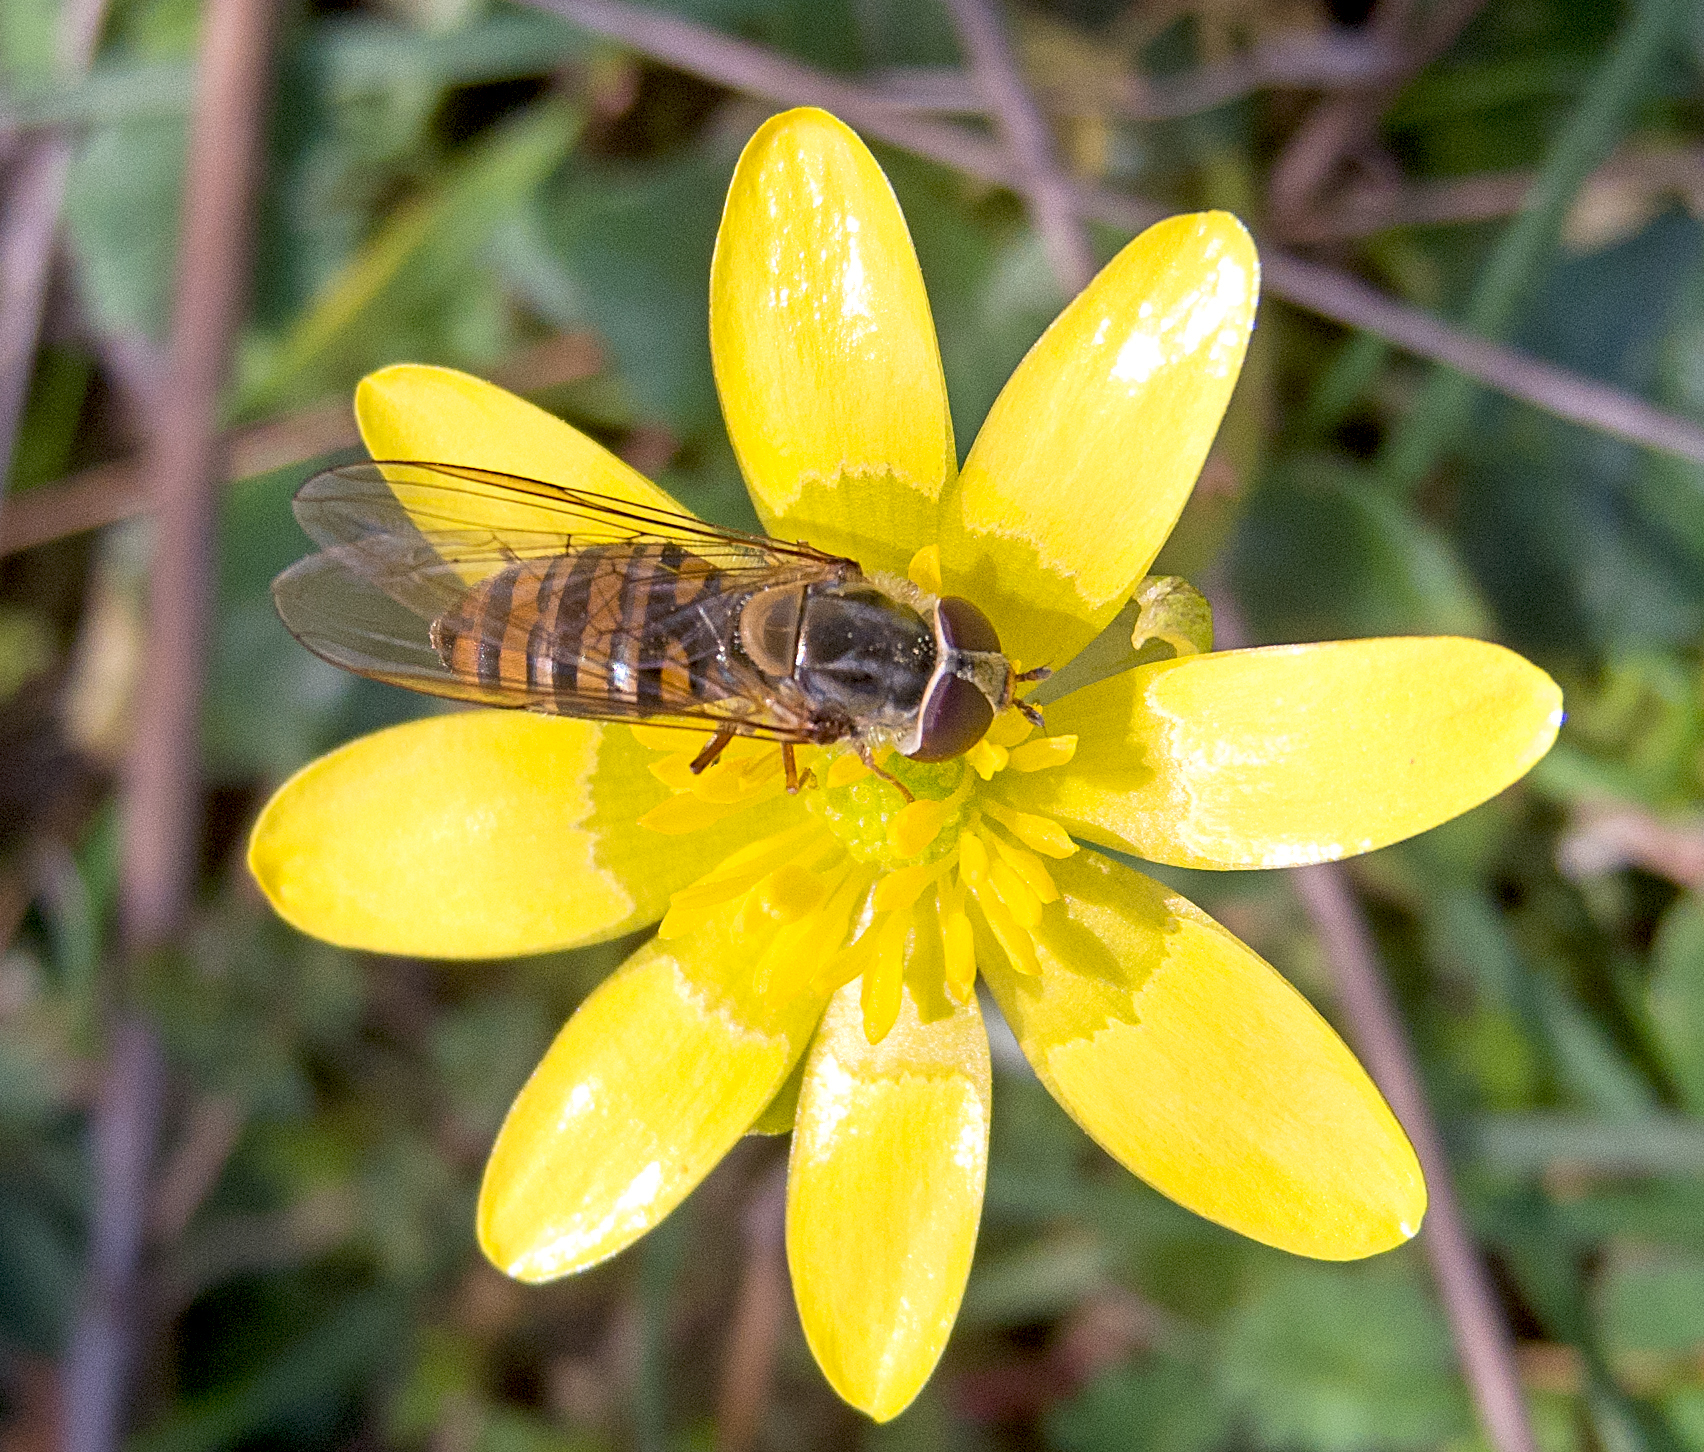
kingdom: Animalia
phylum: Arthropoda
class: Insecta
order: Diptera
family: Syrphidae
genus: Episyrphus
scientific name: Episyrphus balteatus
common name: Marmalade hoverfly
